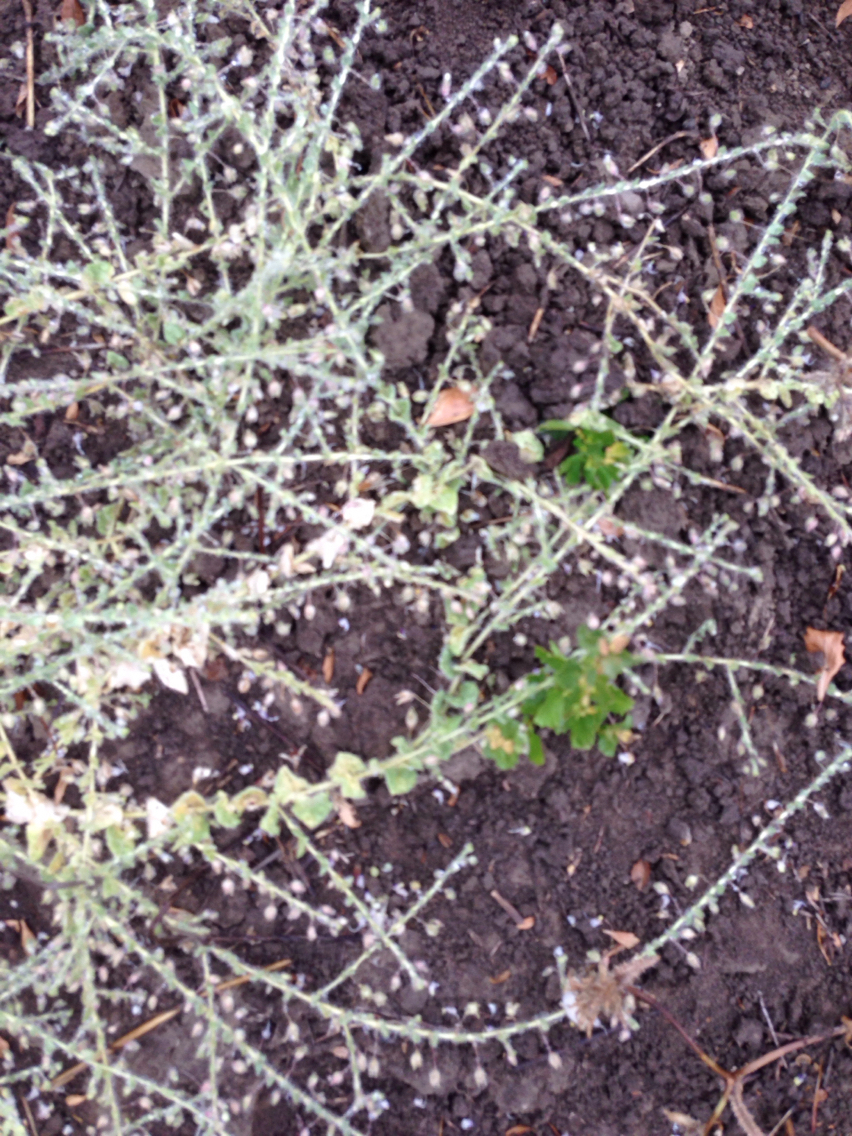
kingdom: Plantae
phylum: Tracheophyta
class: Magnoliopsida
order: Lamiales
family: Plantaginaceae
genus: Kickxia
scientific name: Kickxia
